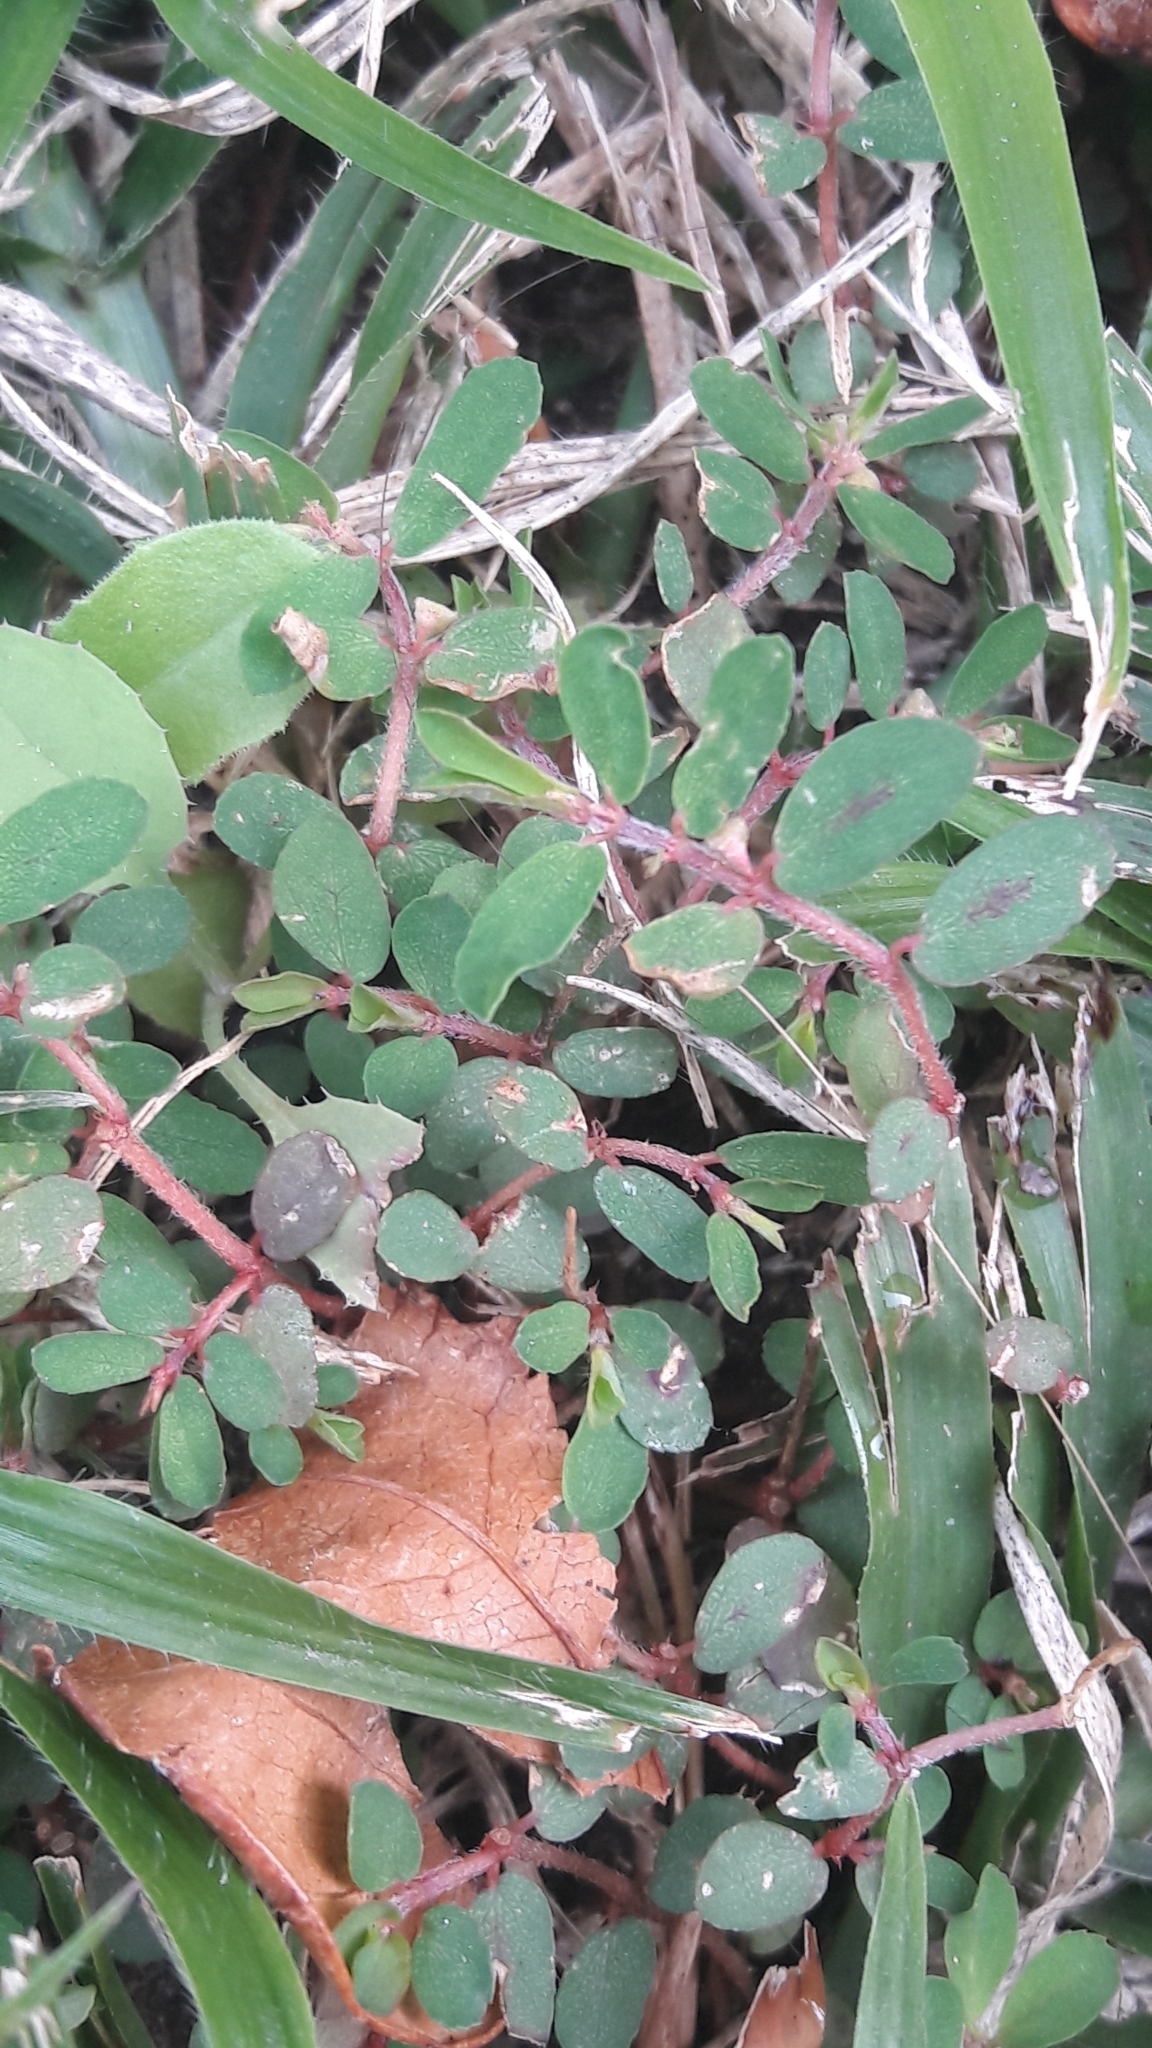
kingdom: Plantae
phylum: Tracheophyta
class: Magnoliopsida
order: Malpighiales
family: Euphorbiaceae
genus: Euphorbia
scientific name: Euphorbia maculata
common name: Spotted spurge
